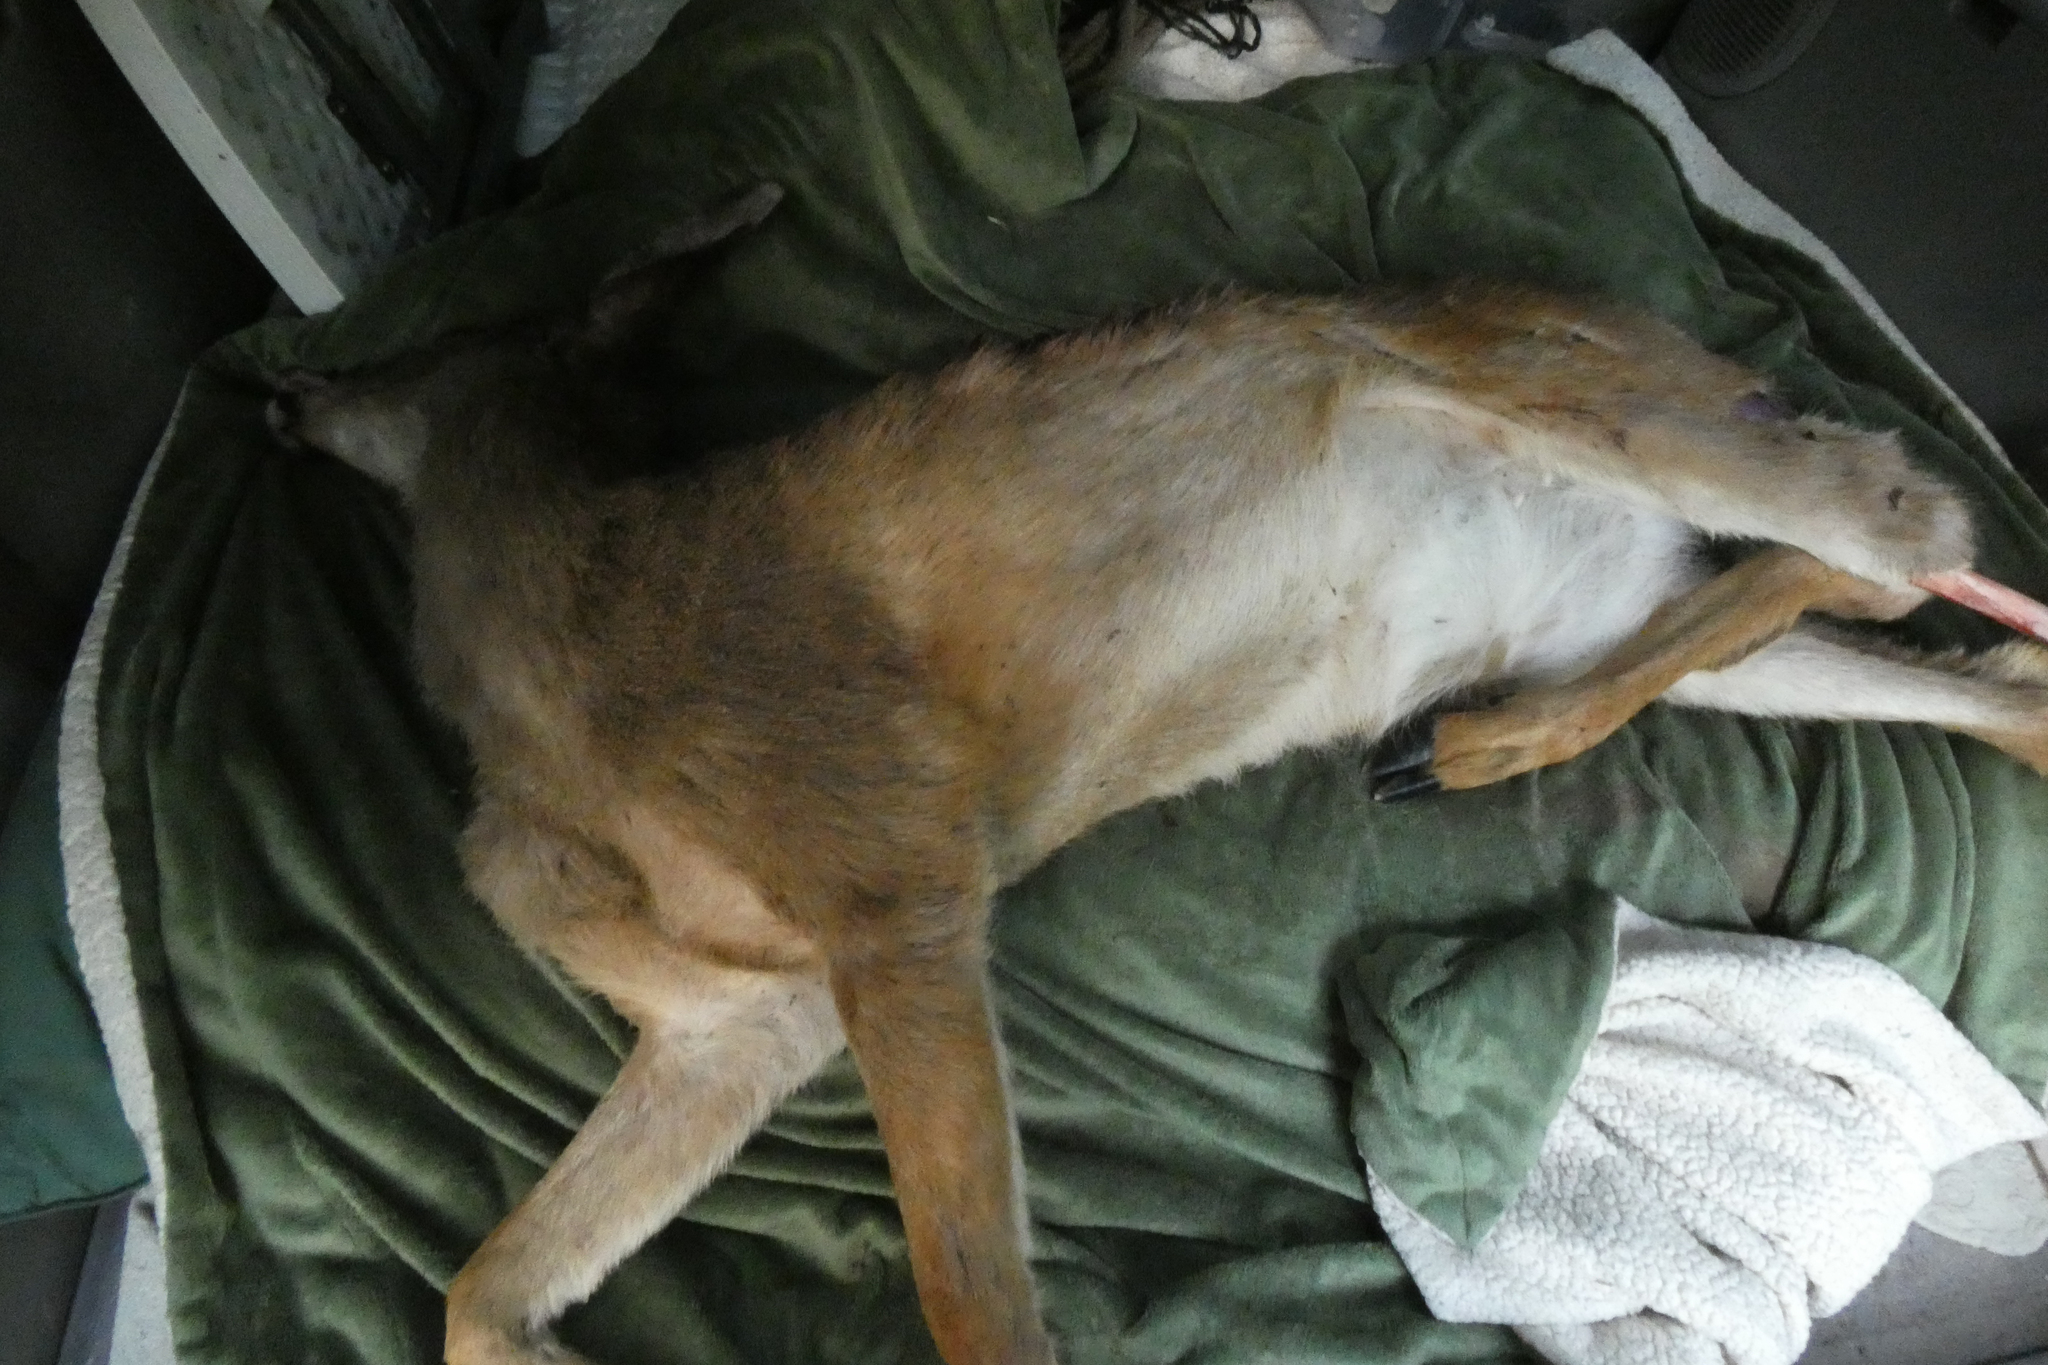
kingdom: Animalia
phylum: Chordata
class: Mammalia
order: Artiodactyla
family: Cervidae
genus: Odocoileus
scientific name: Odocoileus hemionus
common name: Mule deer
